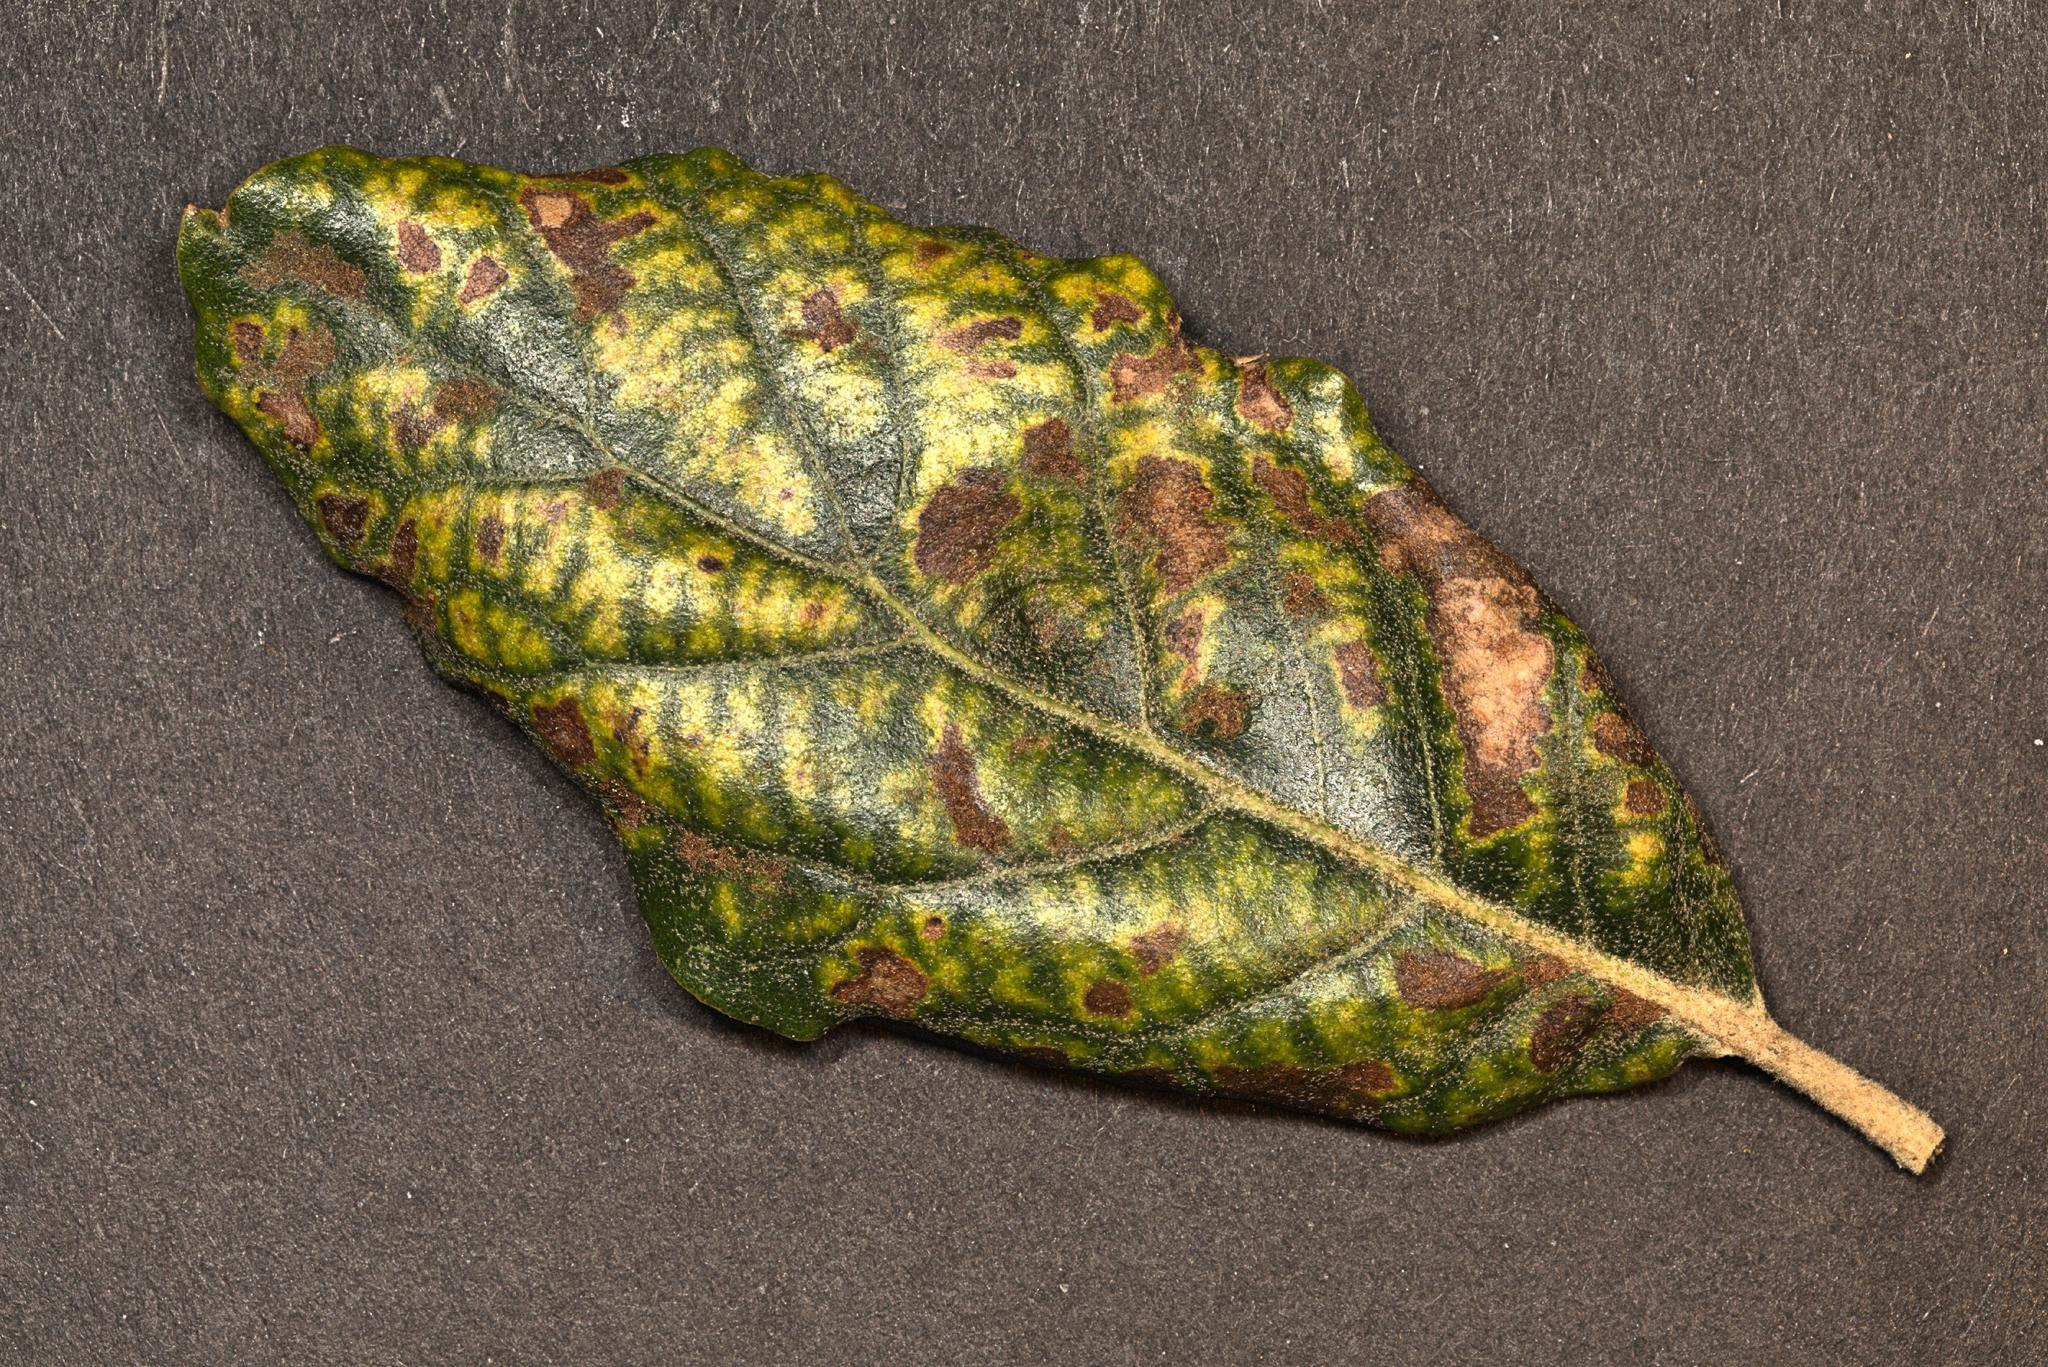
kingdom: Animalia
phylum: Arthropoda
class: Arachnida
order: Trombidiformes
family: Eriophyidae
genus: Aceria
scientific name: Aceria ilicis
